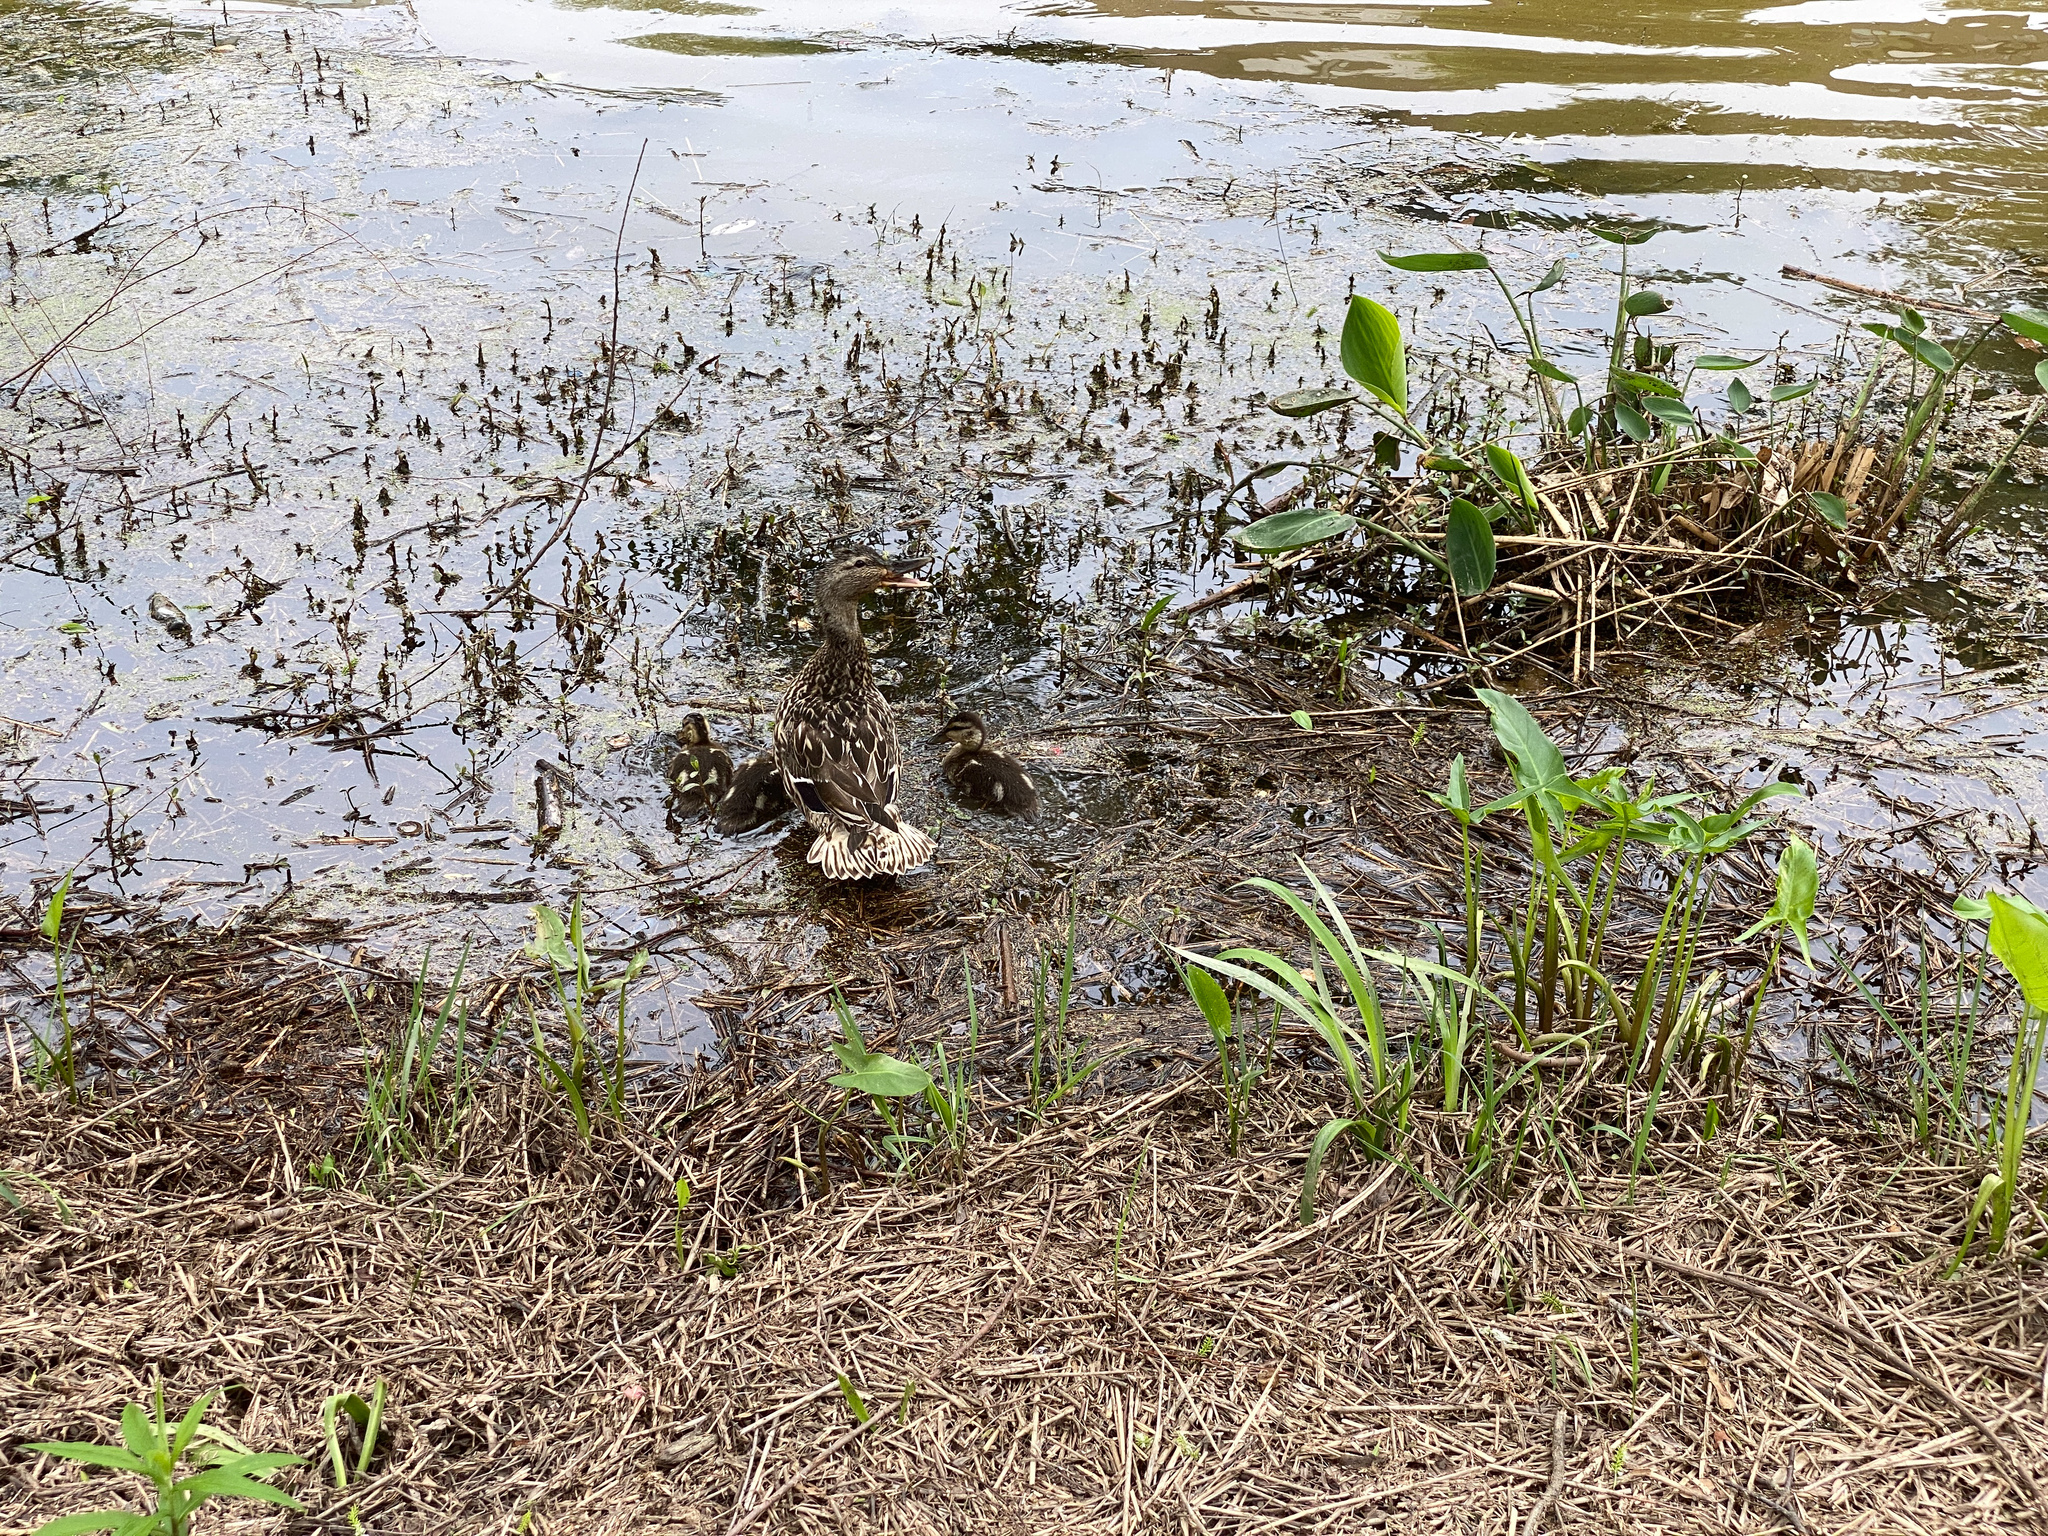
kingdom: Animalia
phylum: Chordata
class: Aves
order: Anseriformes
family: Anatidae
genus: Anas
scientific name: Anas platyrhynchos
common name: Mallard
